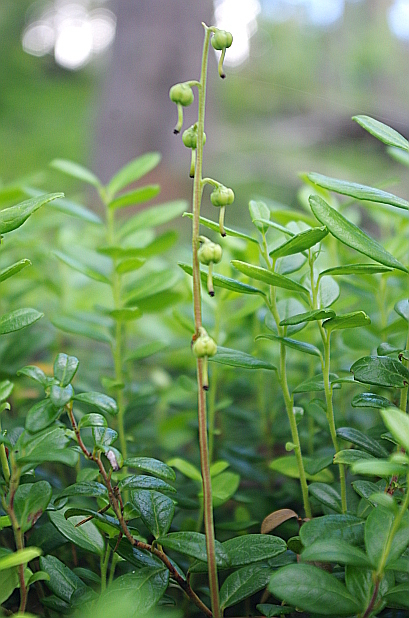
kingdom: Plantae
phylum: Tracheophyta
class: Magnoliopsida
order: Ericales
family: Ericaceae
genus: Pyrola
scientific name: Pyrola chlorantha
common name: Green wintergreen
